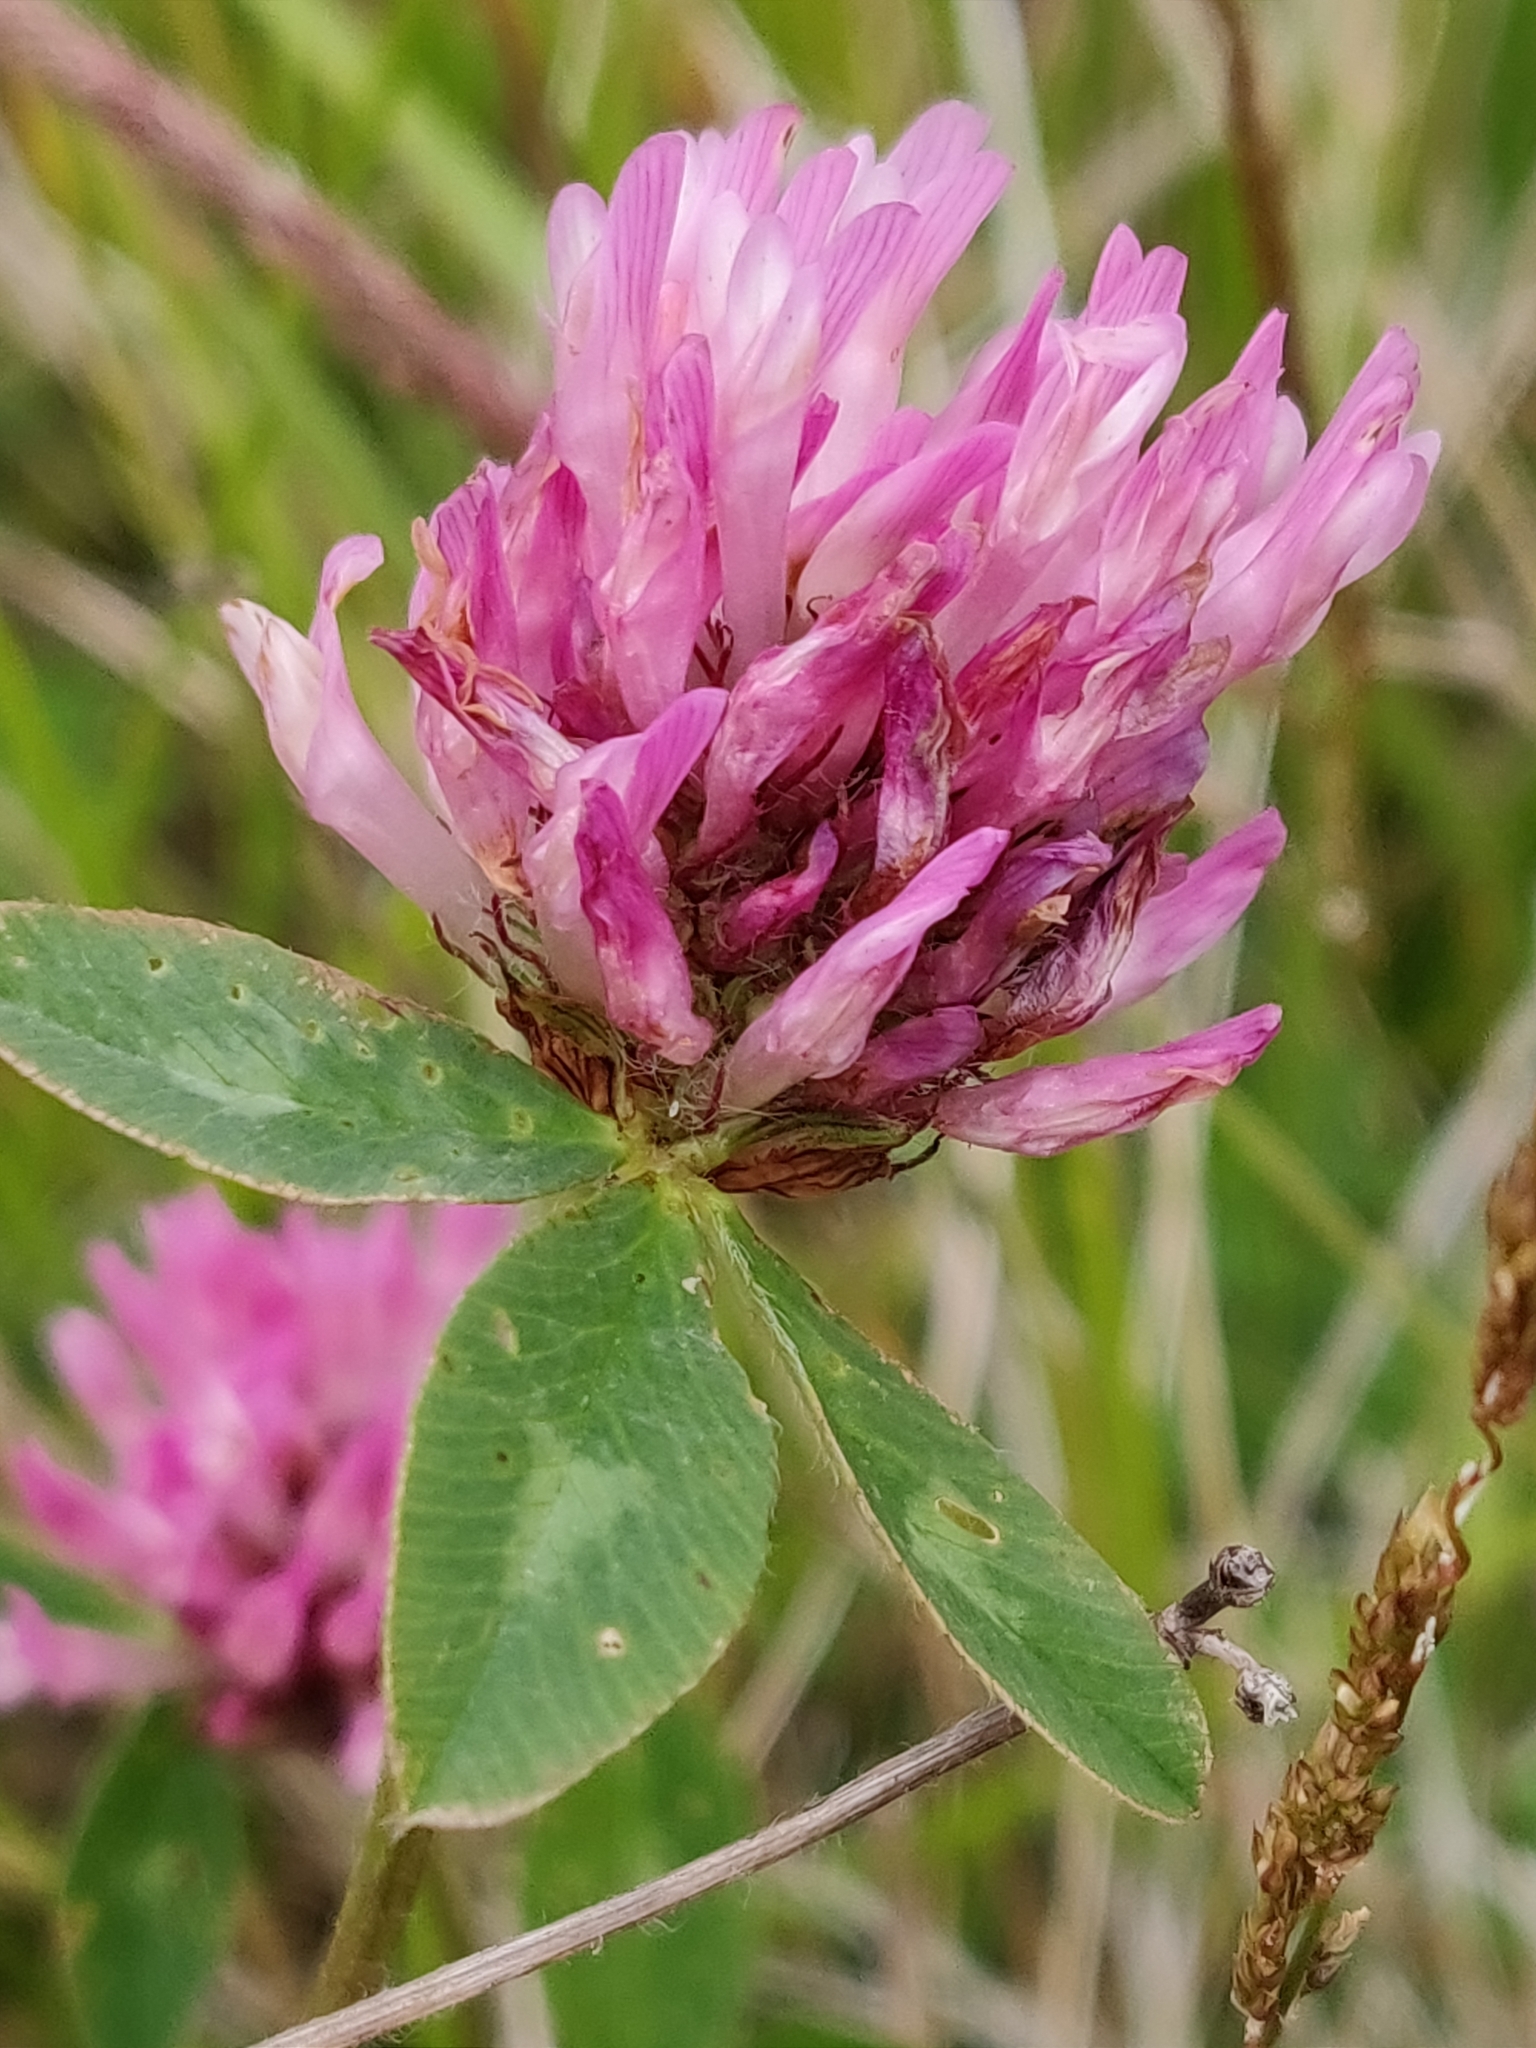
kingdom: Plantae
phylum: Tracheophyta
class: Magnoliopsida
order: Fabales
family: Fabaceae
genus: Trifolium
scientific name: Trifolium pratense
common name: Red clover
